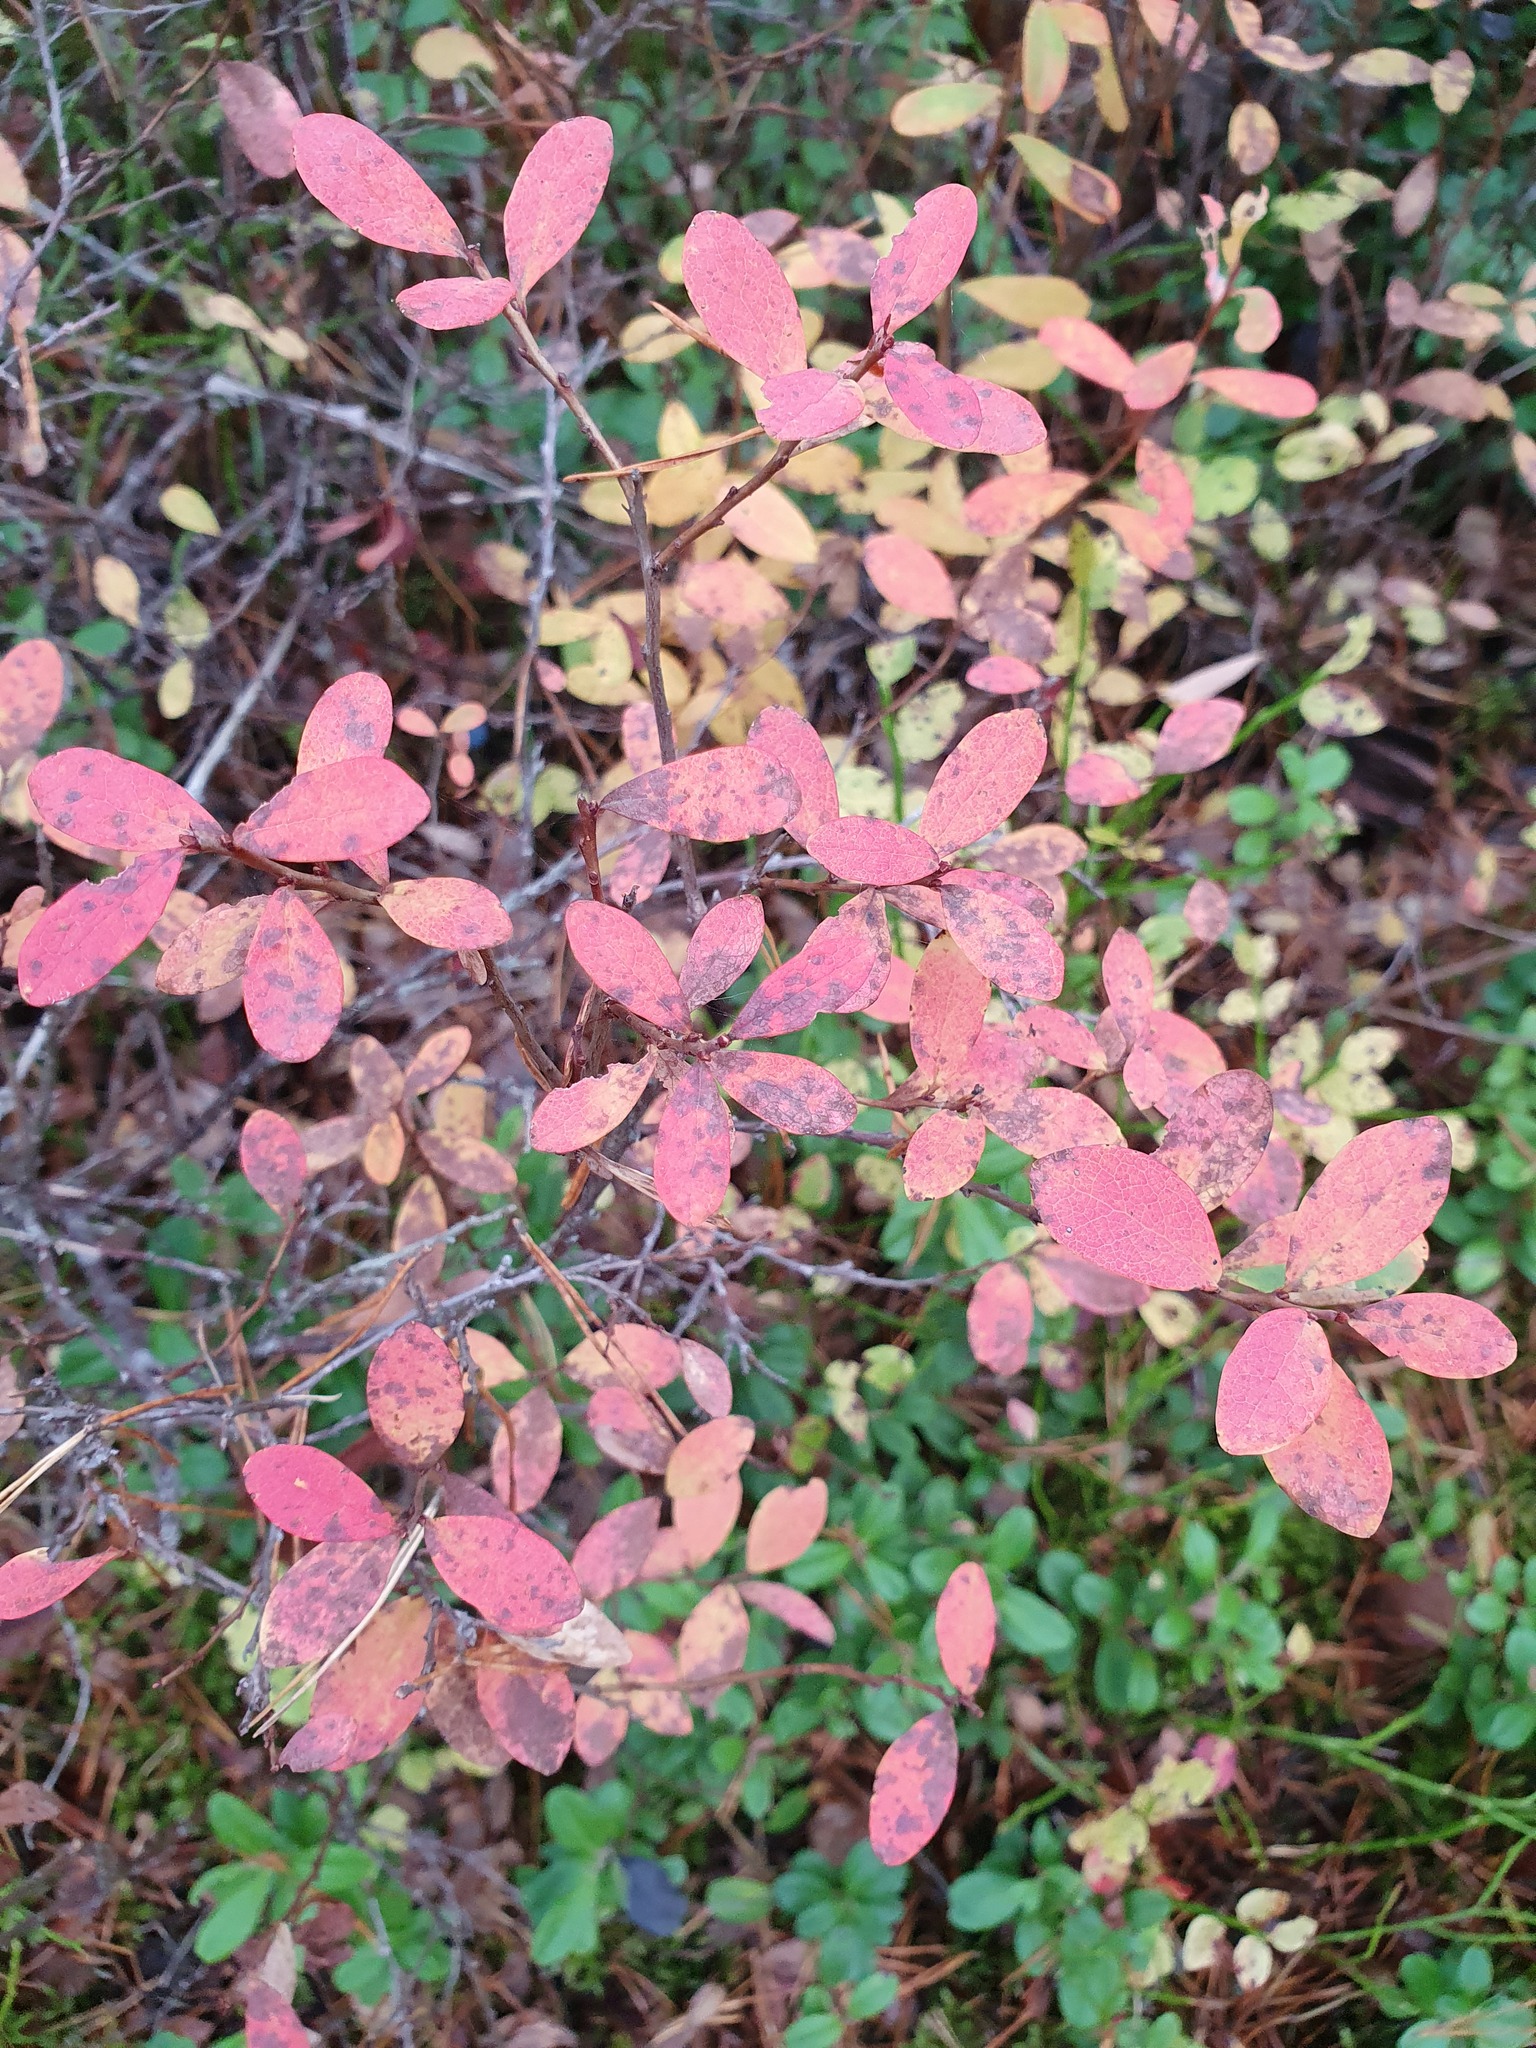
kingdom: Plantae
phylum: Tracheophyta
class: Magnoliopsida
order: Ericales
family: Ericaceae
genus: Vaccinium
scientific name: Vaccinium uliginosum
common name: Bog bilberry
